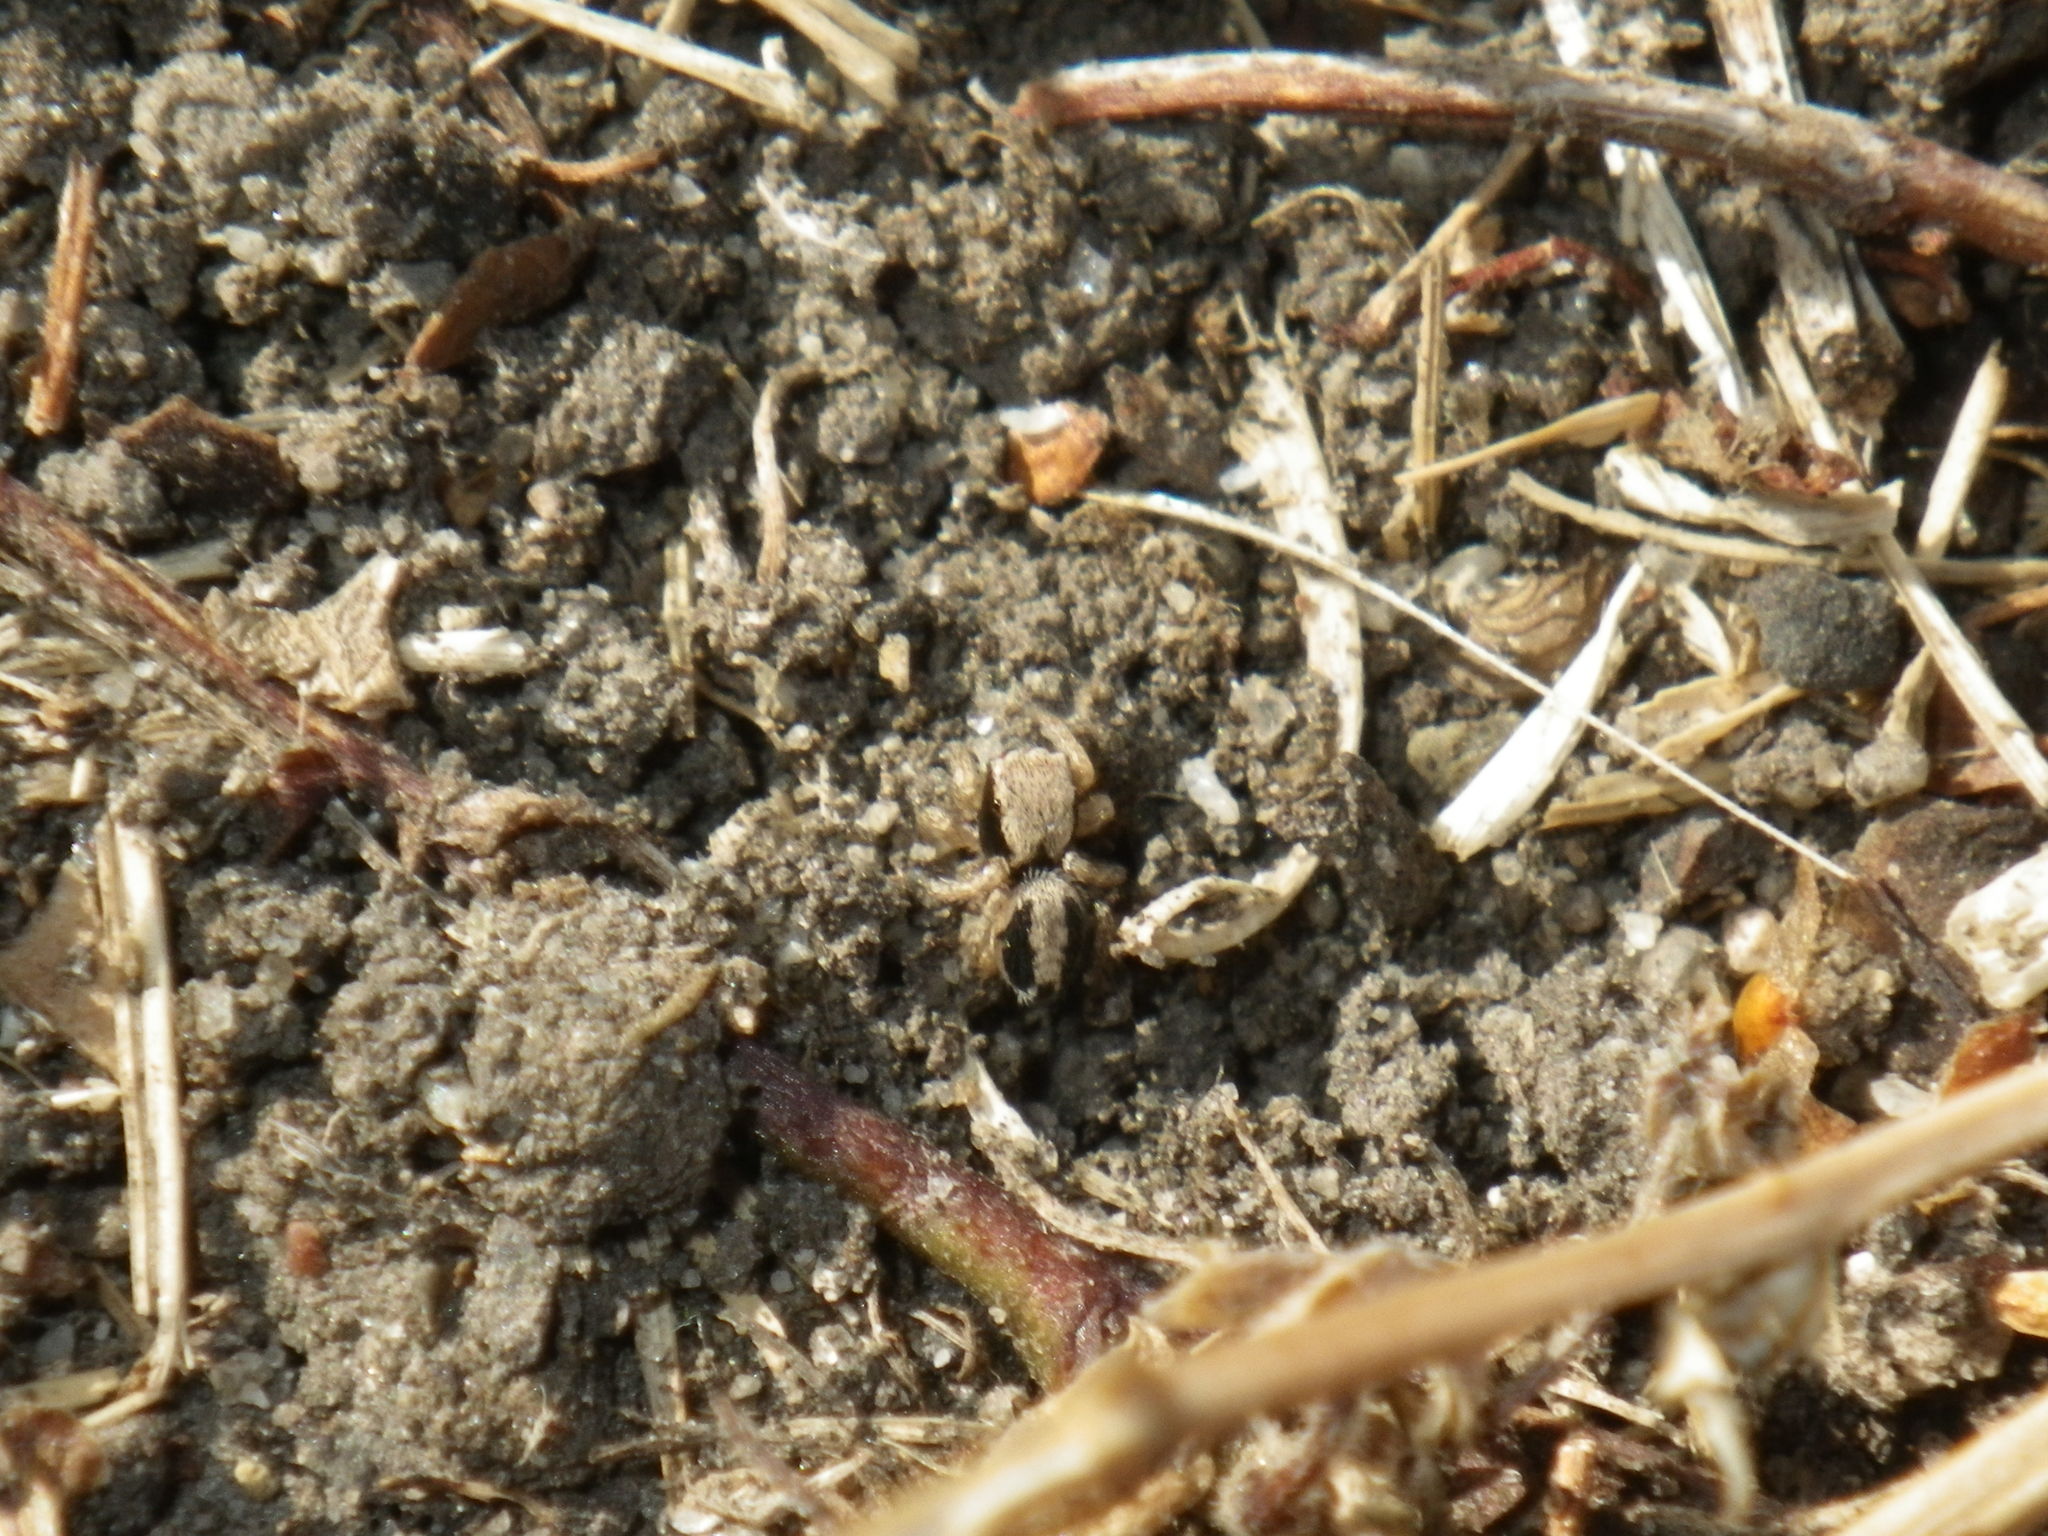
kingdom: Animalia
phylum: Arthropoda
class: Arachnida
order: Araneae
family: Salticidae
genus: Habronattus
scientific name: Habronattus pyrrithrix
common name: Jumping spider
